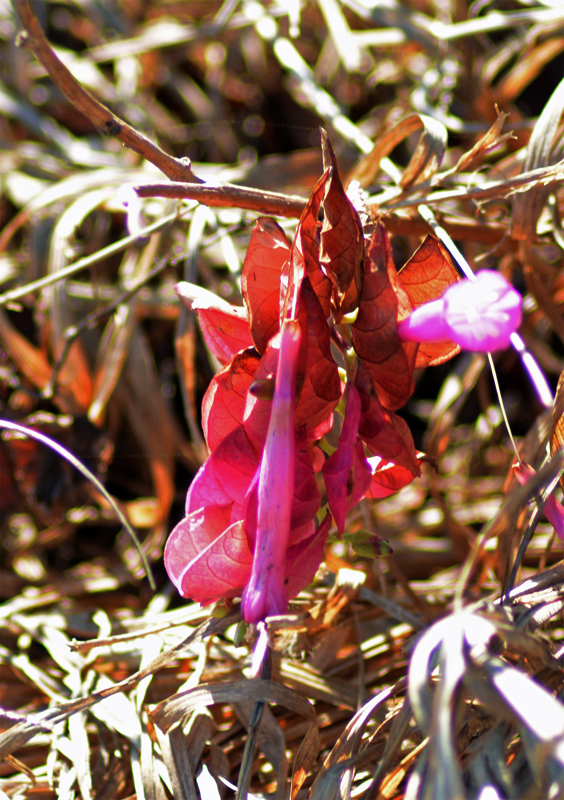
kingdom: Plantae
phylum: Tracheophyta
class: Magnoliopsida
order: Solanales
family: Convolvulaceae
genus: Ipomoea
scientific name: Ipomoea bracteata
